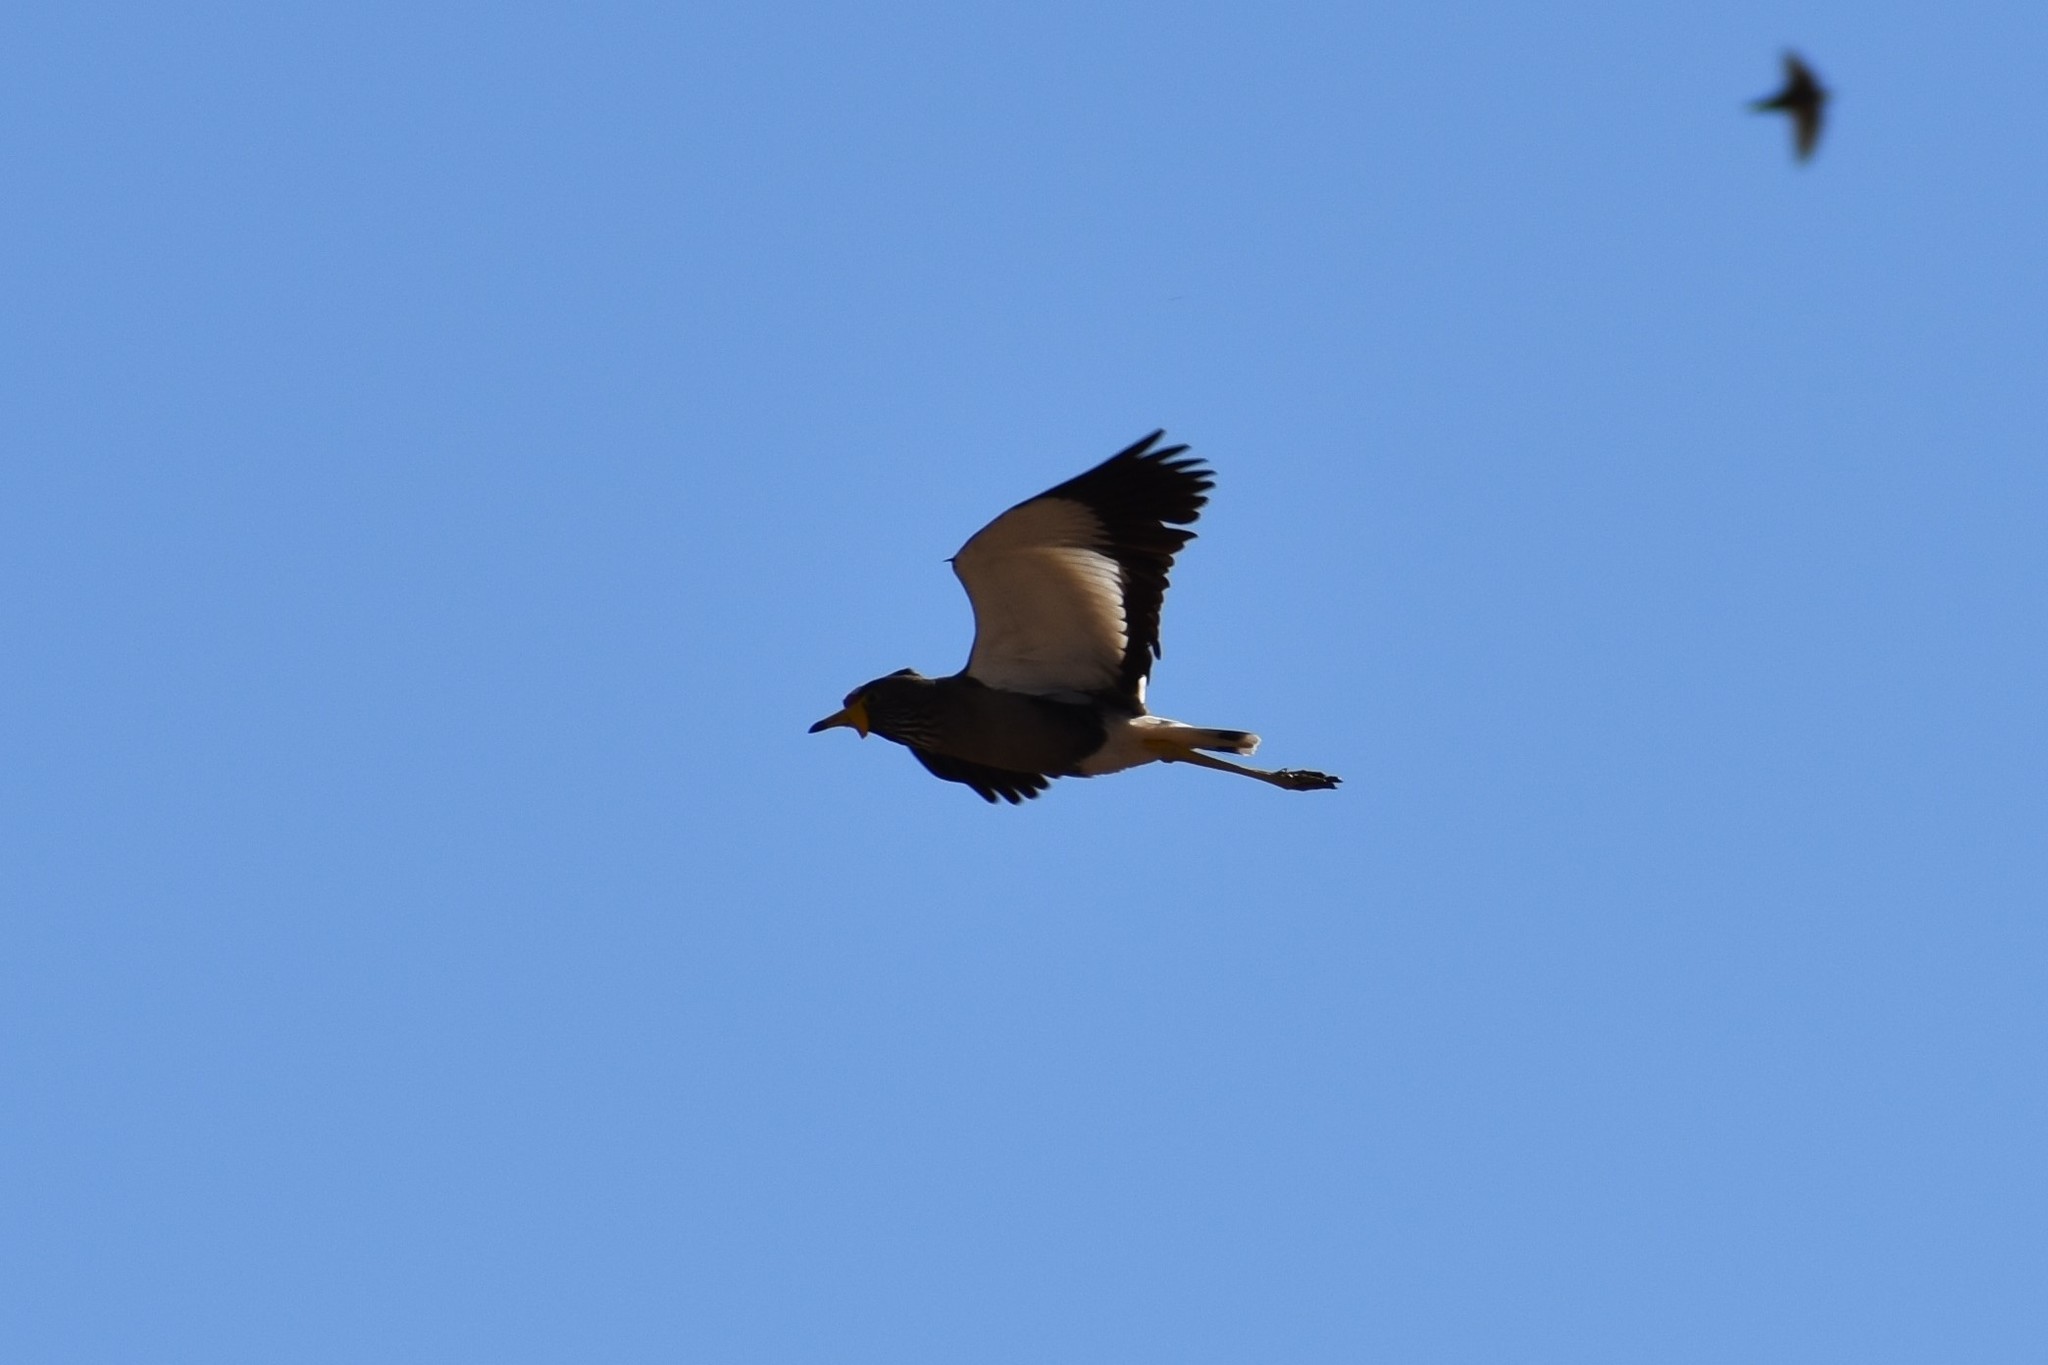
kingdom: Animalia
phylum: Chordata
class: Aves
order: Charadriiformes
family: Charadriidae
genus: Vanellus
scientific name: Vanellus senegallus
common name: African wattled lapwing
